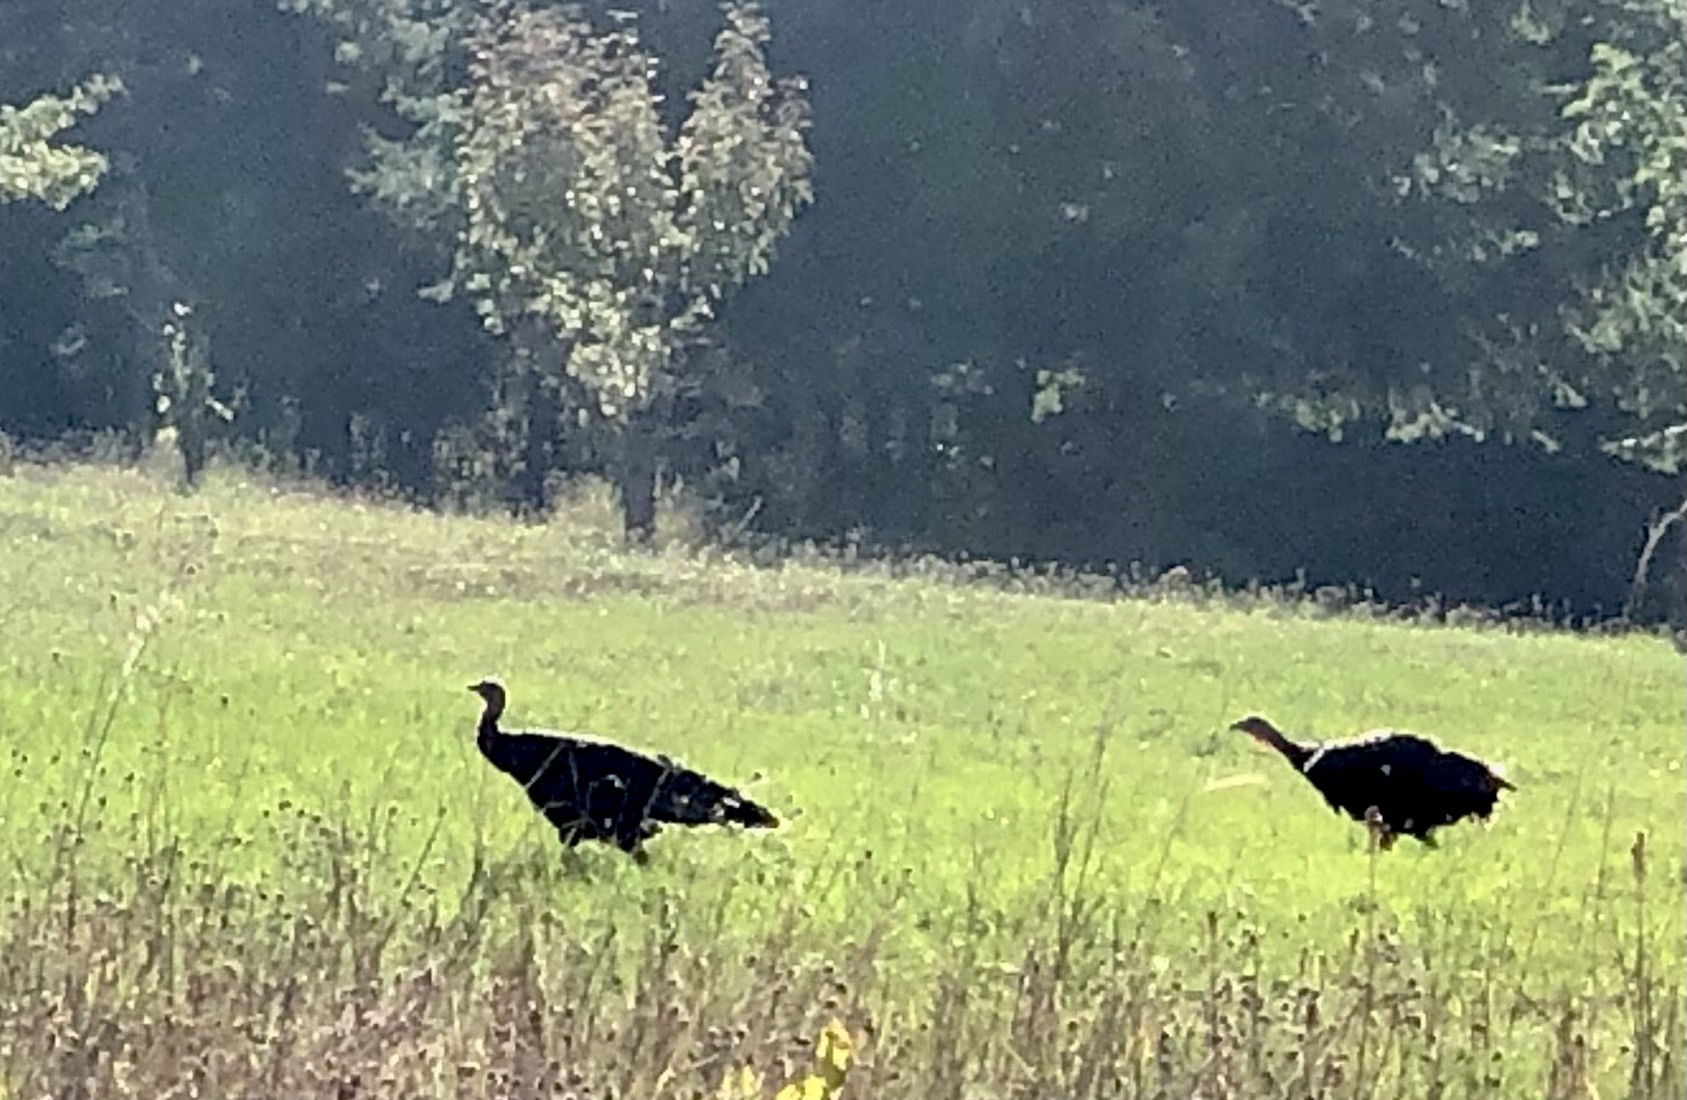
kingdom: Animalia
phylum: Chordata
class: Aves
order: Galliformes
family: Phasianidae
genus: Meleagris
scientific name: Meleagris gallopavo
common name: Wild turkey
